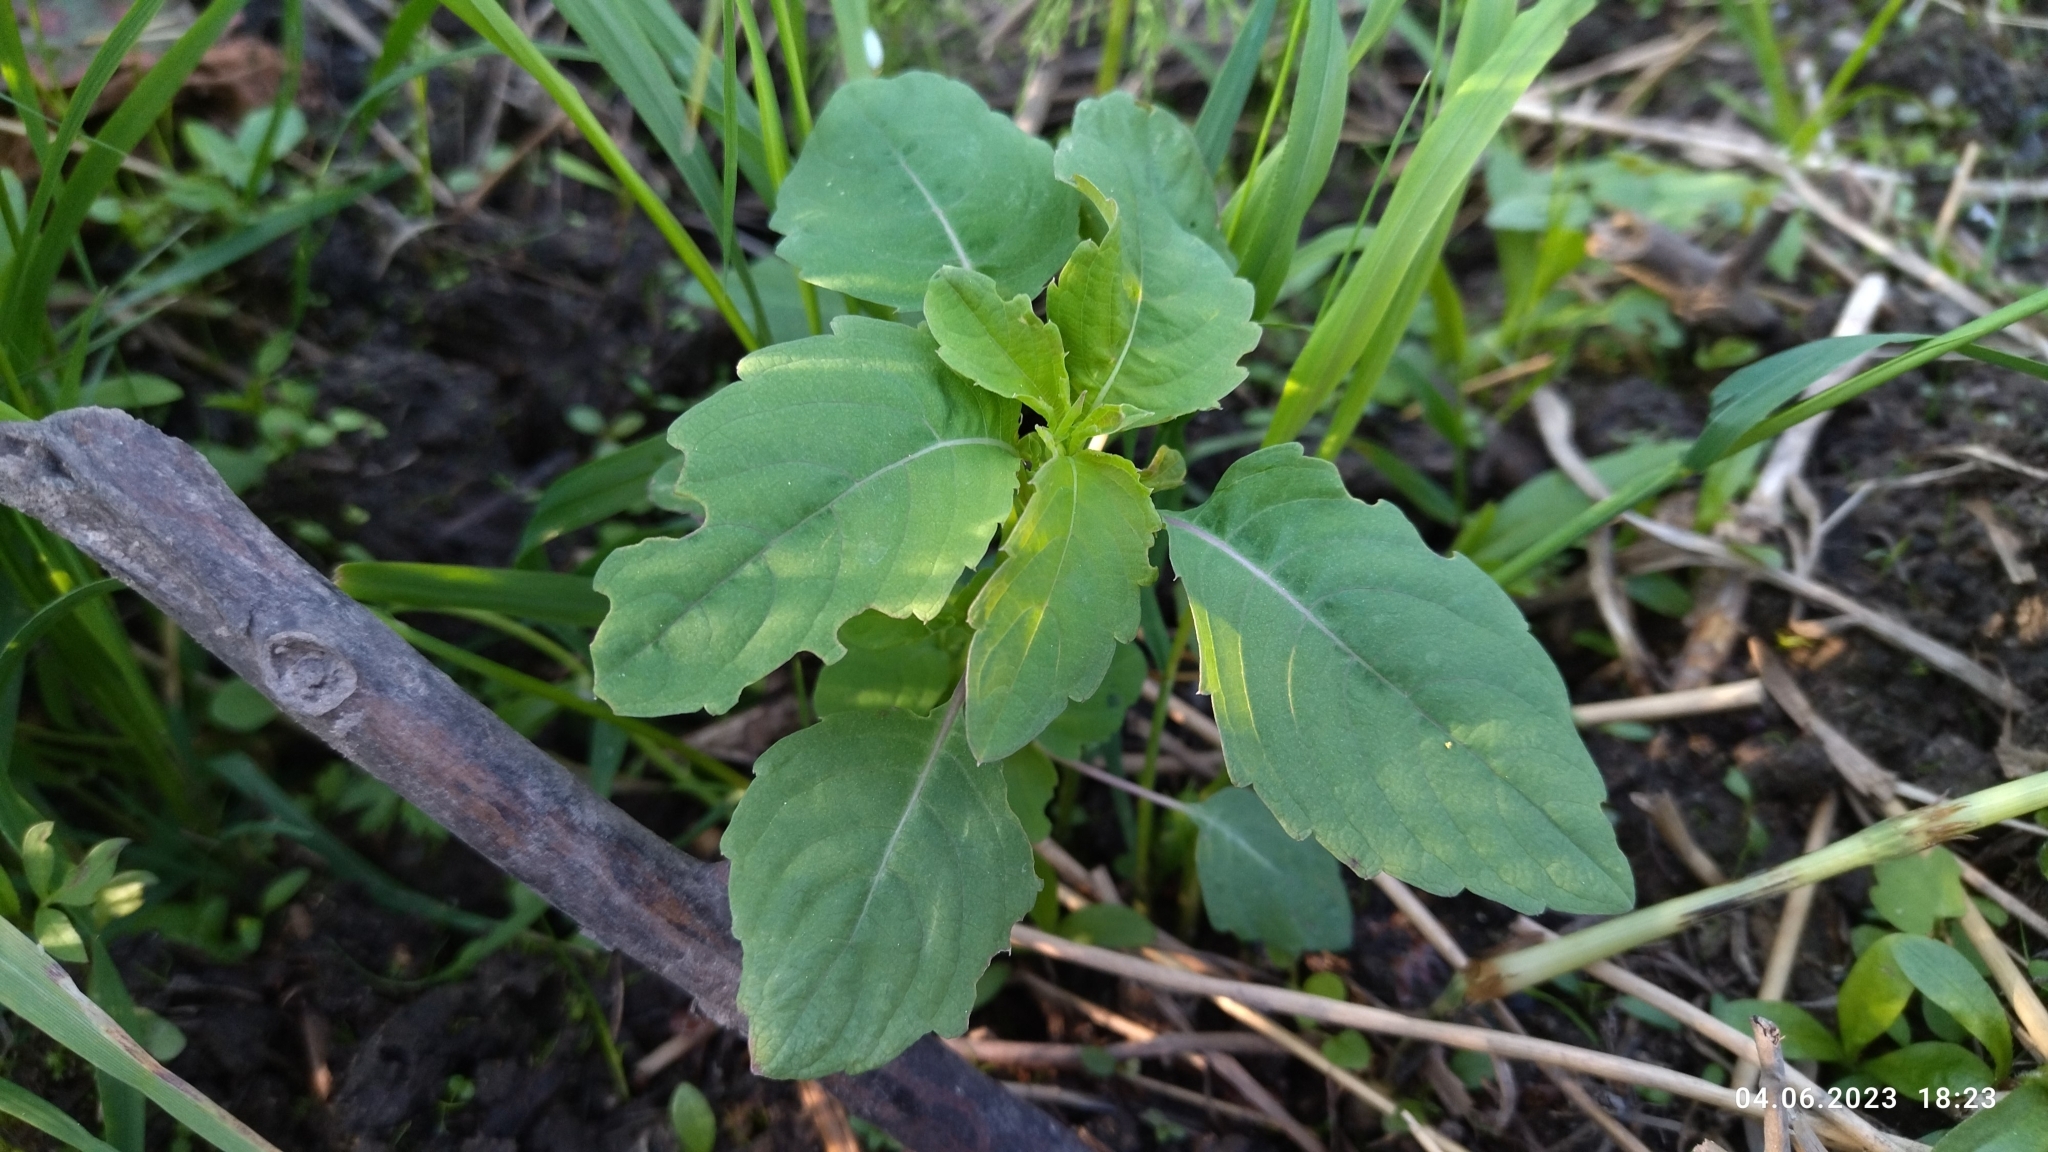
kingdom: Plantae
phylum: Tracheophyta
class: Magnoliopsida
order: Ericales
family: Balsaminaceae
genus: Impatiens
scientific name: Impatiens noli-tangere
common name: Touch-me-not balsam
